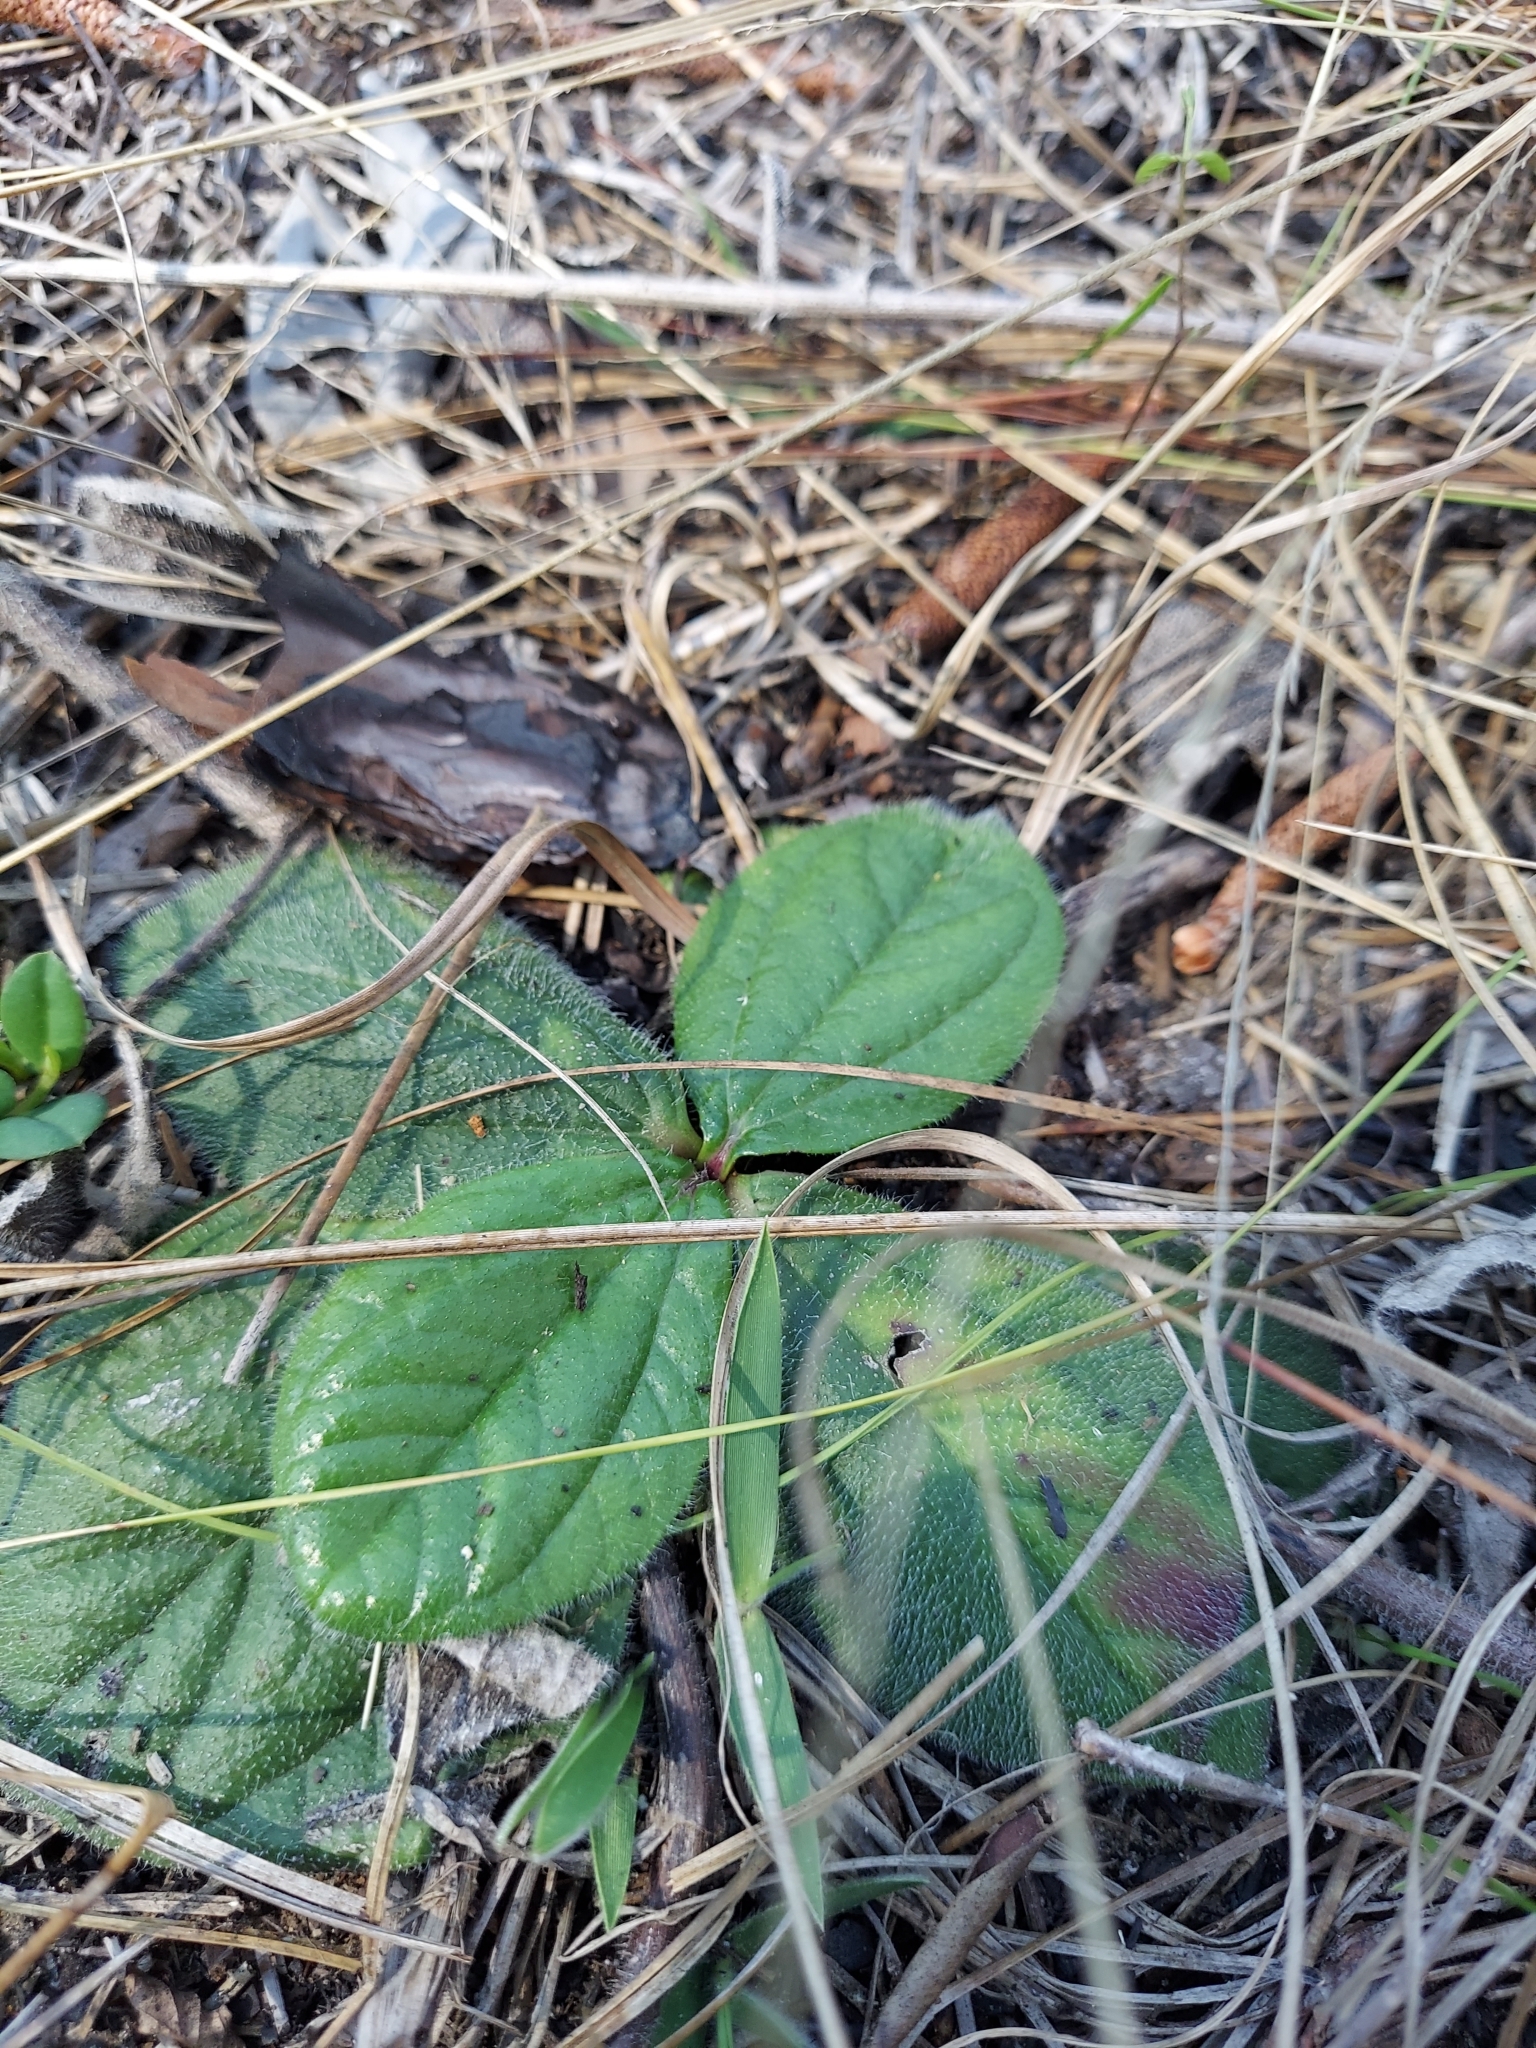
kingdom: Plantae
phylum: Tracheophyta
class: Magnoliopsida
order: Asterales
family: Asteraceae
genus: Helianthus
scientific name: Helianthus radula
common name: Pineland sunflower
